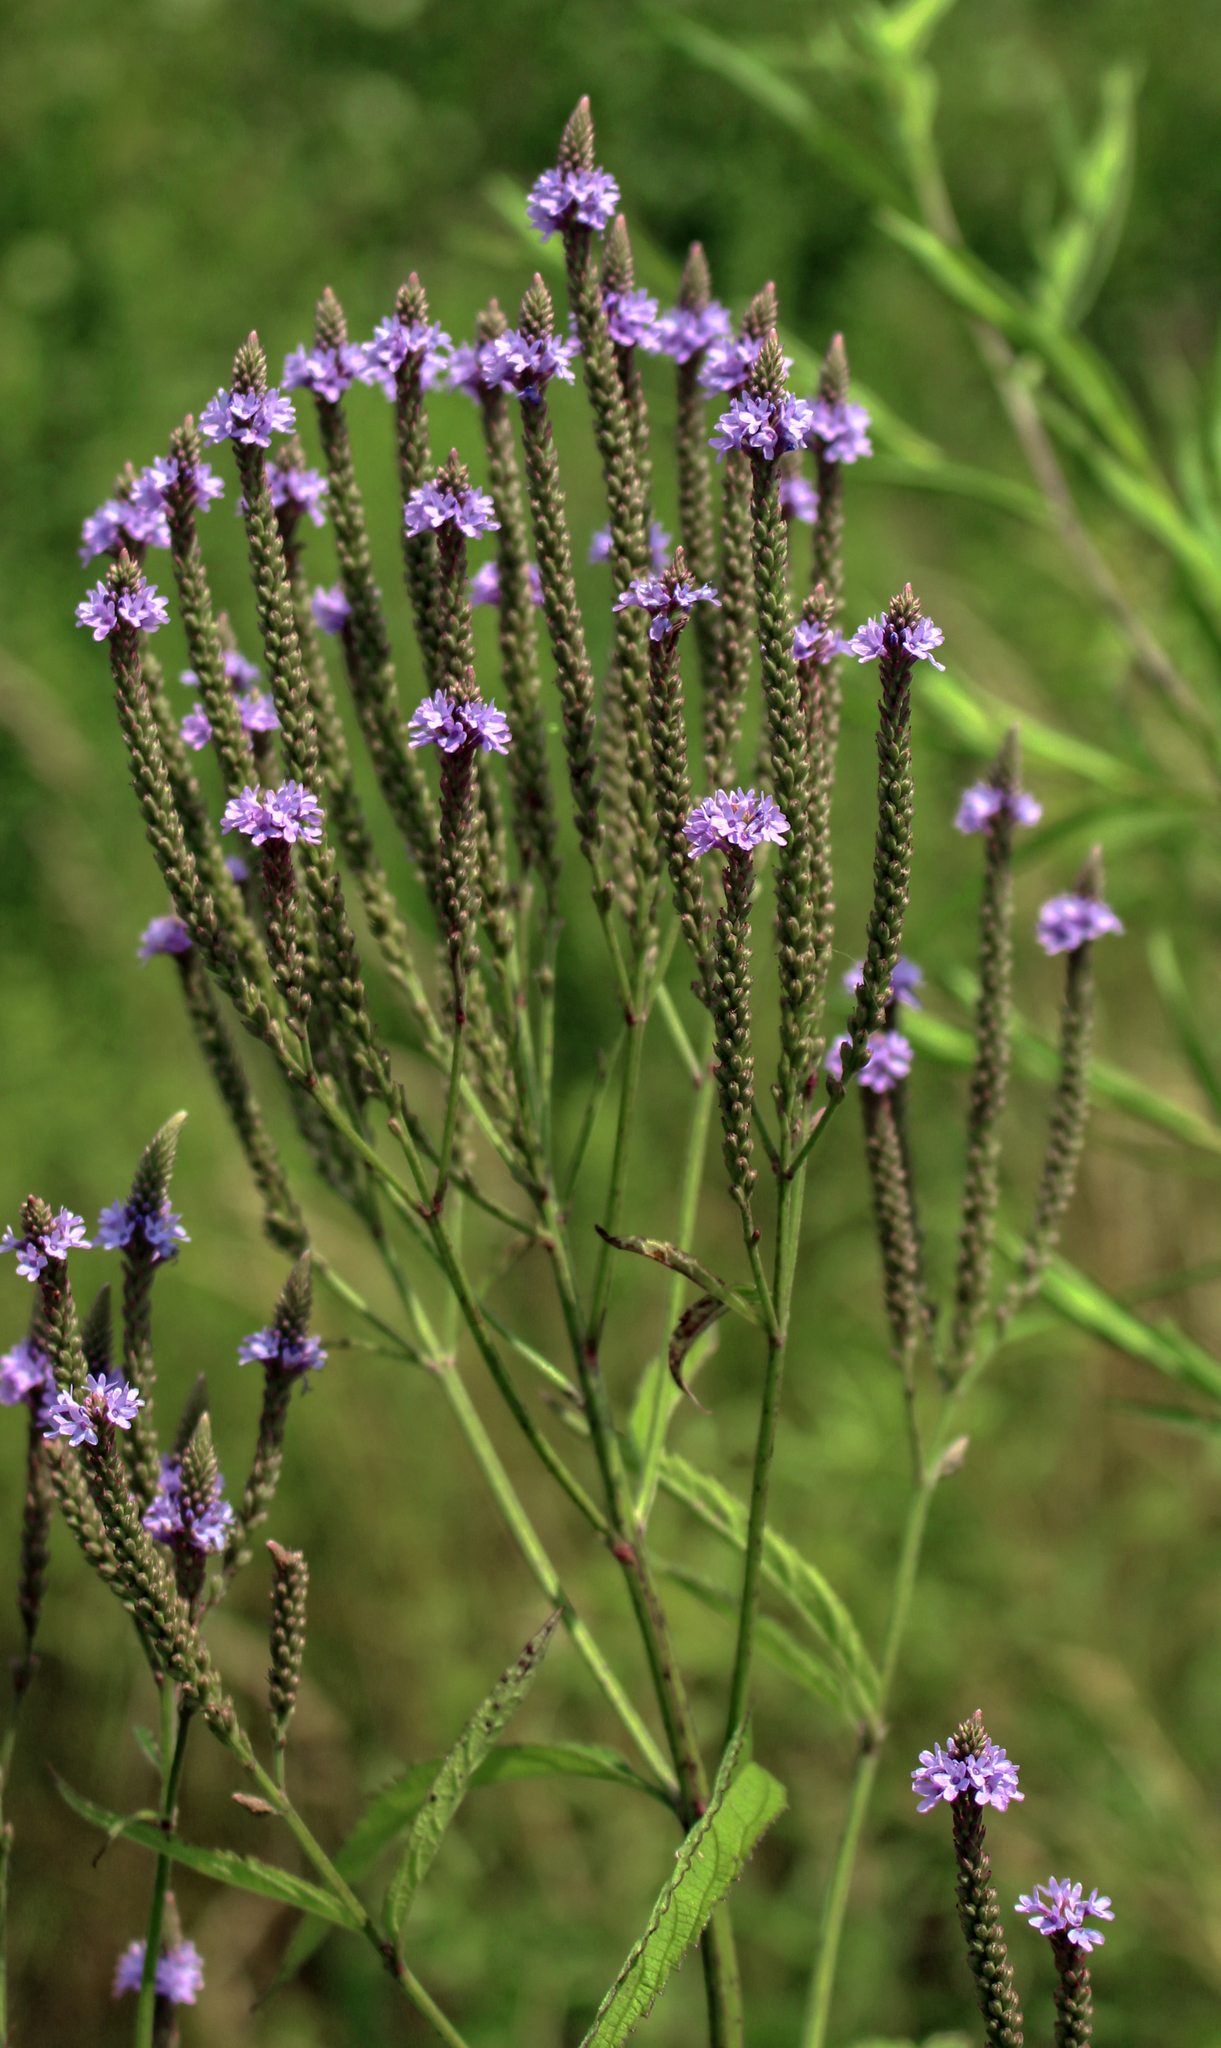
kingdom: Plantae
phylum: Tracheophyta
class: Magnoliopsida
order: Lamiales
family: Verbenaceae
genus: Verbena
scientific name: Verbena hastata
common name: American blue vervain
